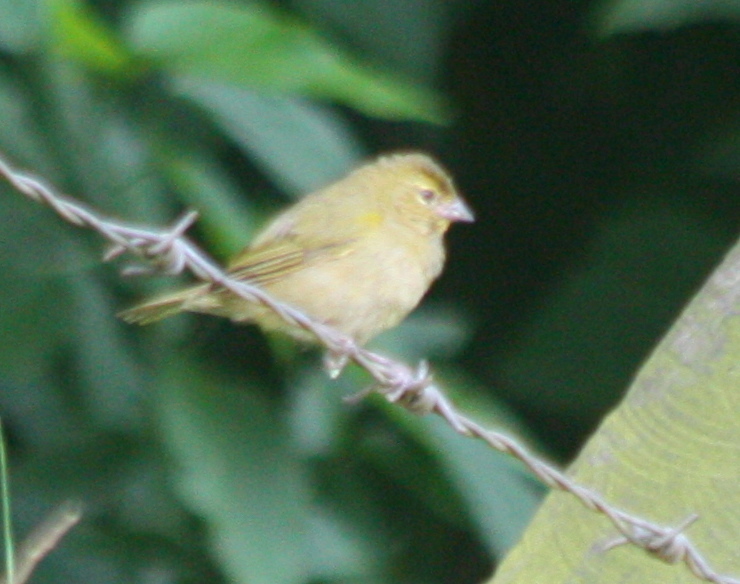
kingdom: Animalia
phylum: Chordata
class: Aves
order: Passeriformes
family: Thraupidae
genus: Tiaris
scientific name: Tiaris olivaceus
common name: Yellow-faced grassquit
